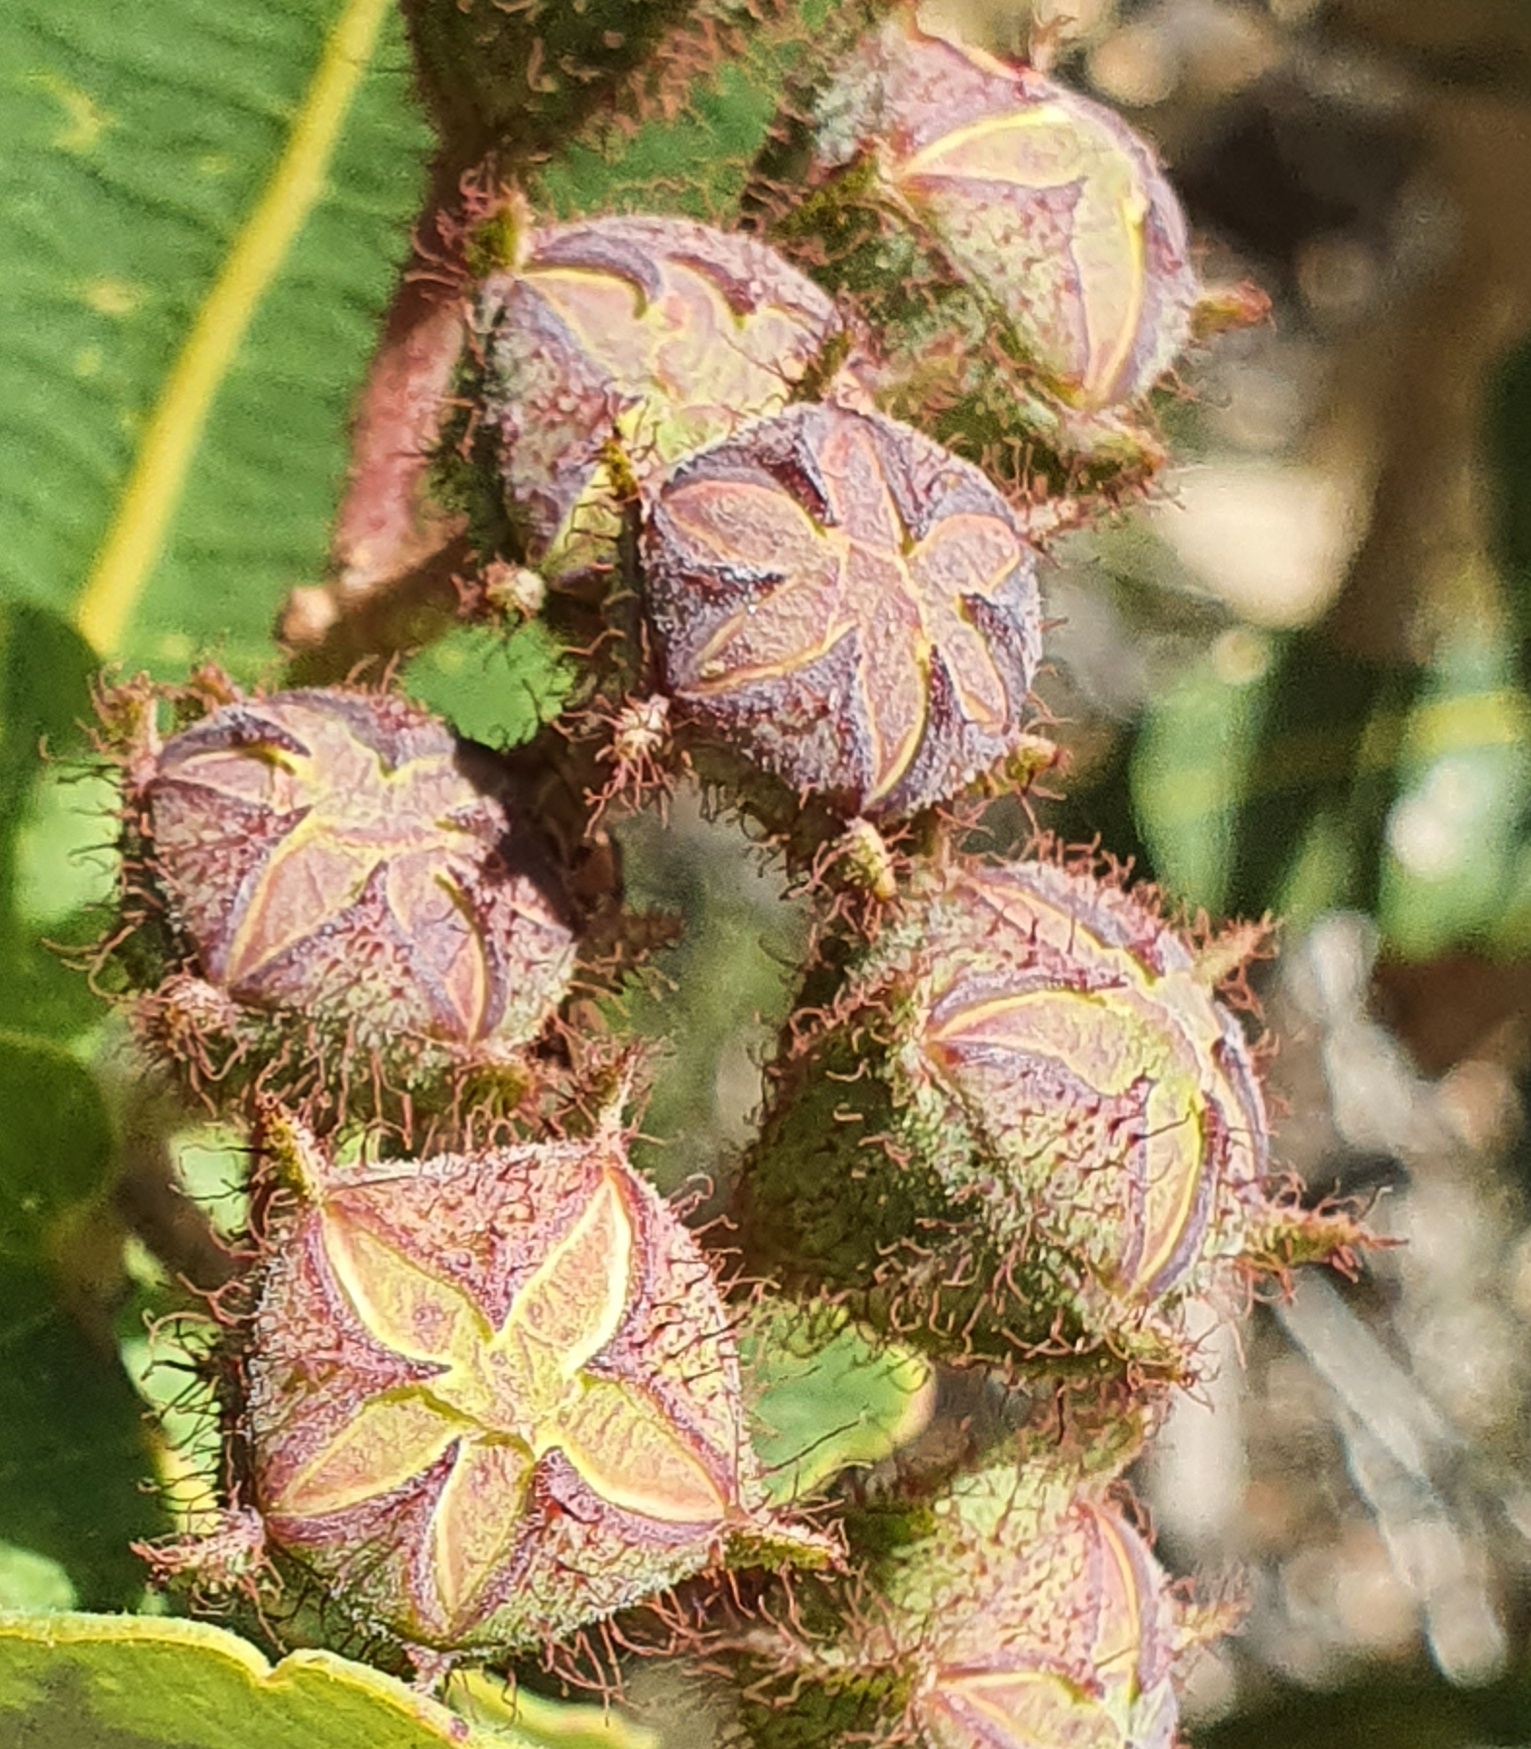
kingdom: Plantae
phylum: Tracheophyta
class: Magnoliopsida
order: Myrtales
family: Myrtaceae
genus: Angophora
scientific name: Angophora hispida
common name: Dwarf-apple
